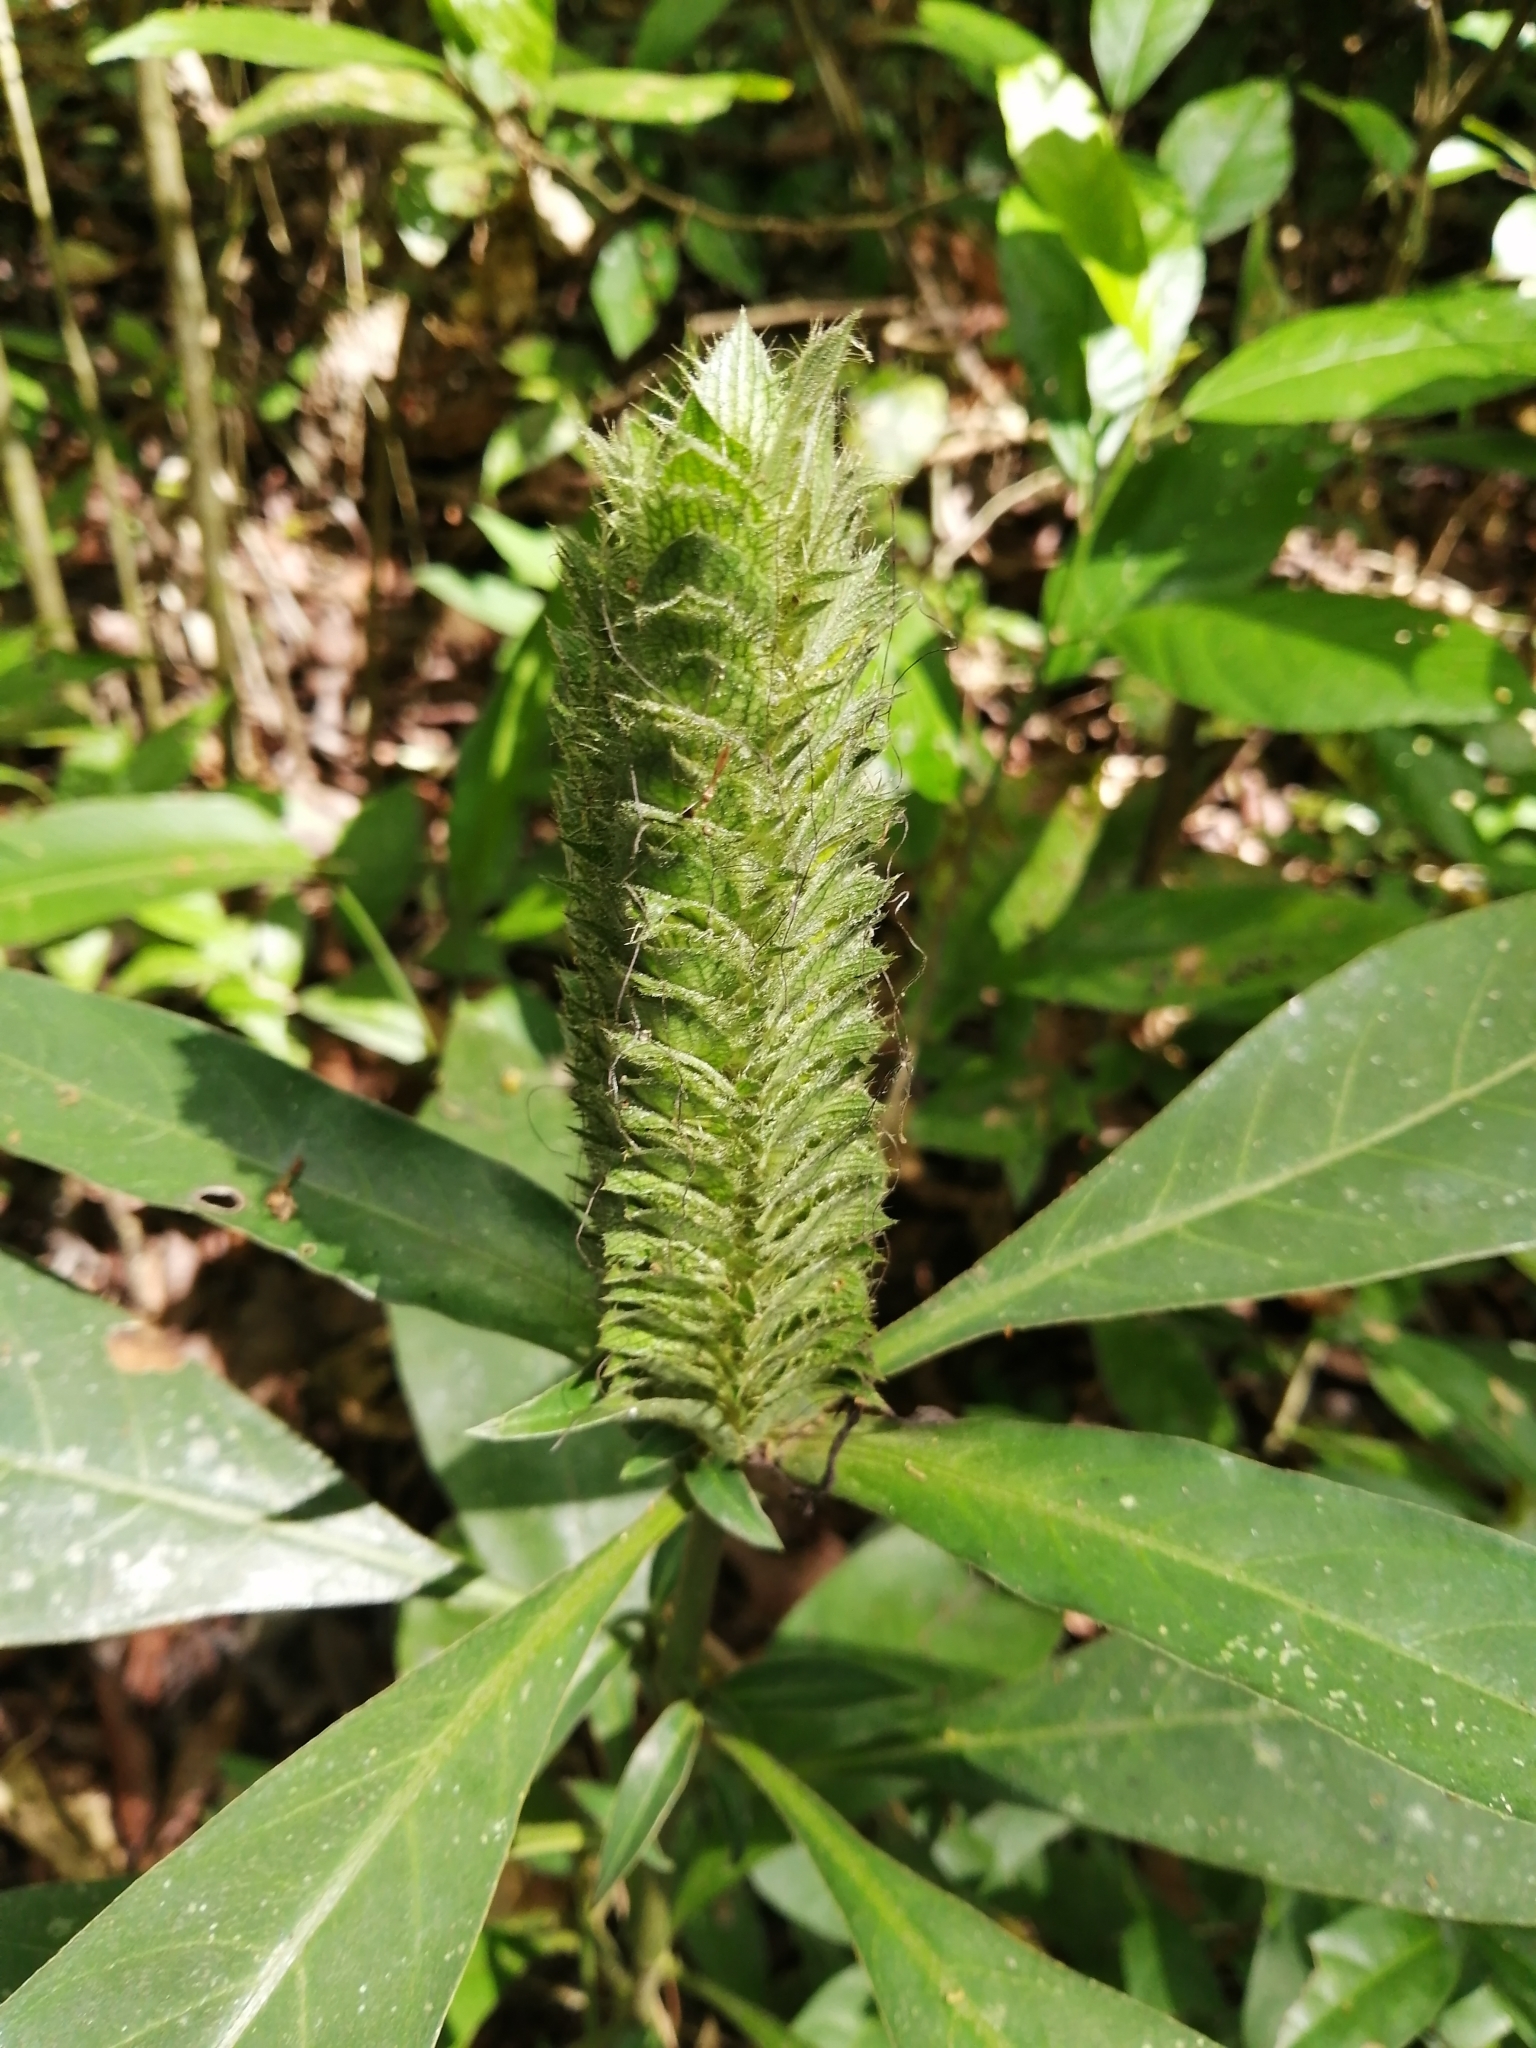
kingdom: Plantae
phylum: Tracheophyta
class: Magnoliopsida
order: Lamiales
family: Acanthaceae
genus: Barleria
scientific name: Barleria oenotheroides
